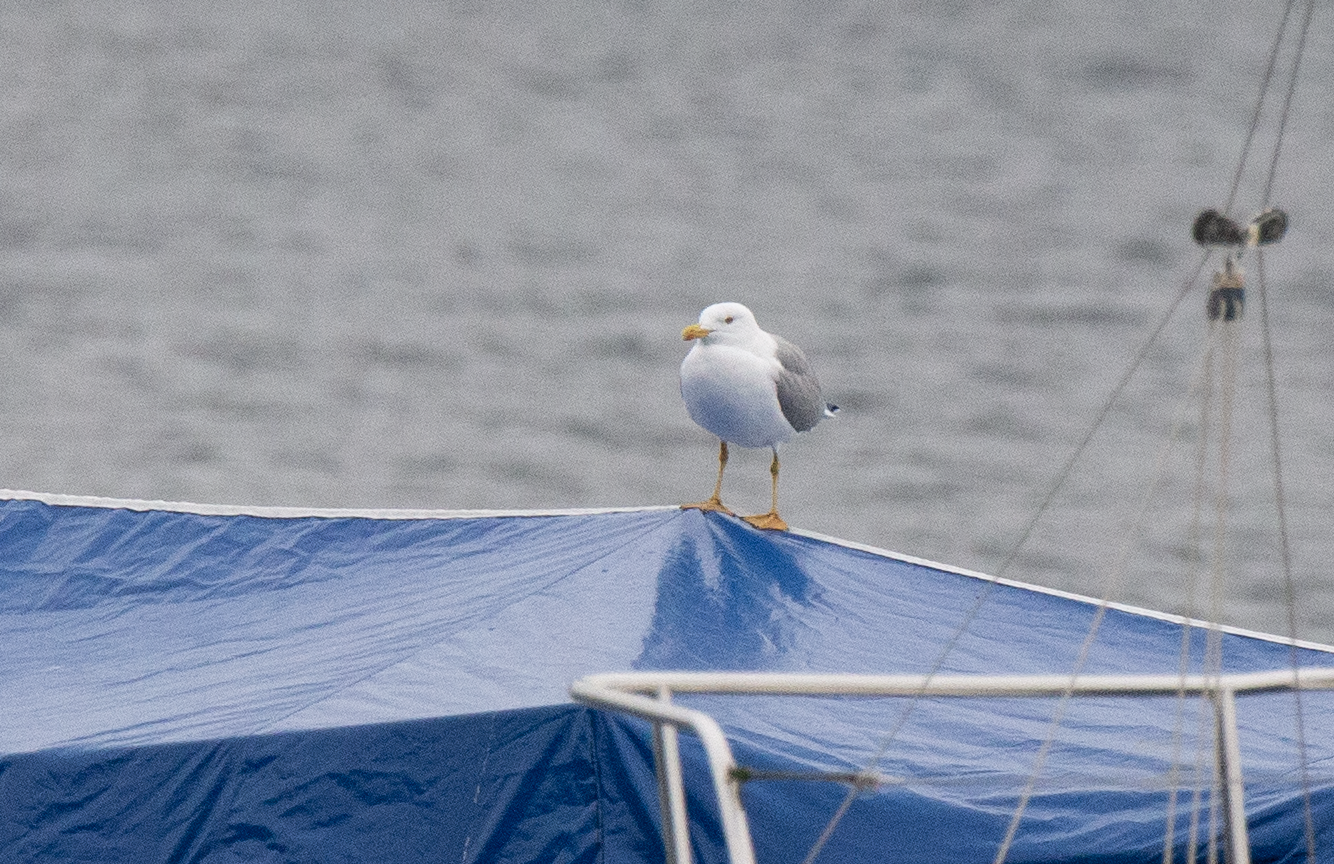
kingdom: Animalia
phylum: Chordata
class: Aves
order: Charadriiformes
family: Laridae
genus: Larus
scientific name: Larus michahellis
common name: Yellow-legged gull
